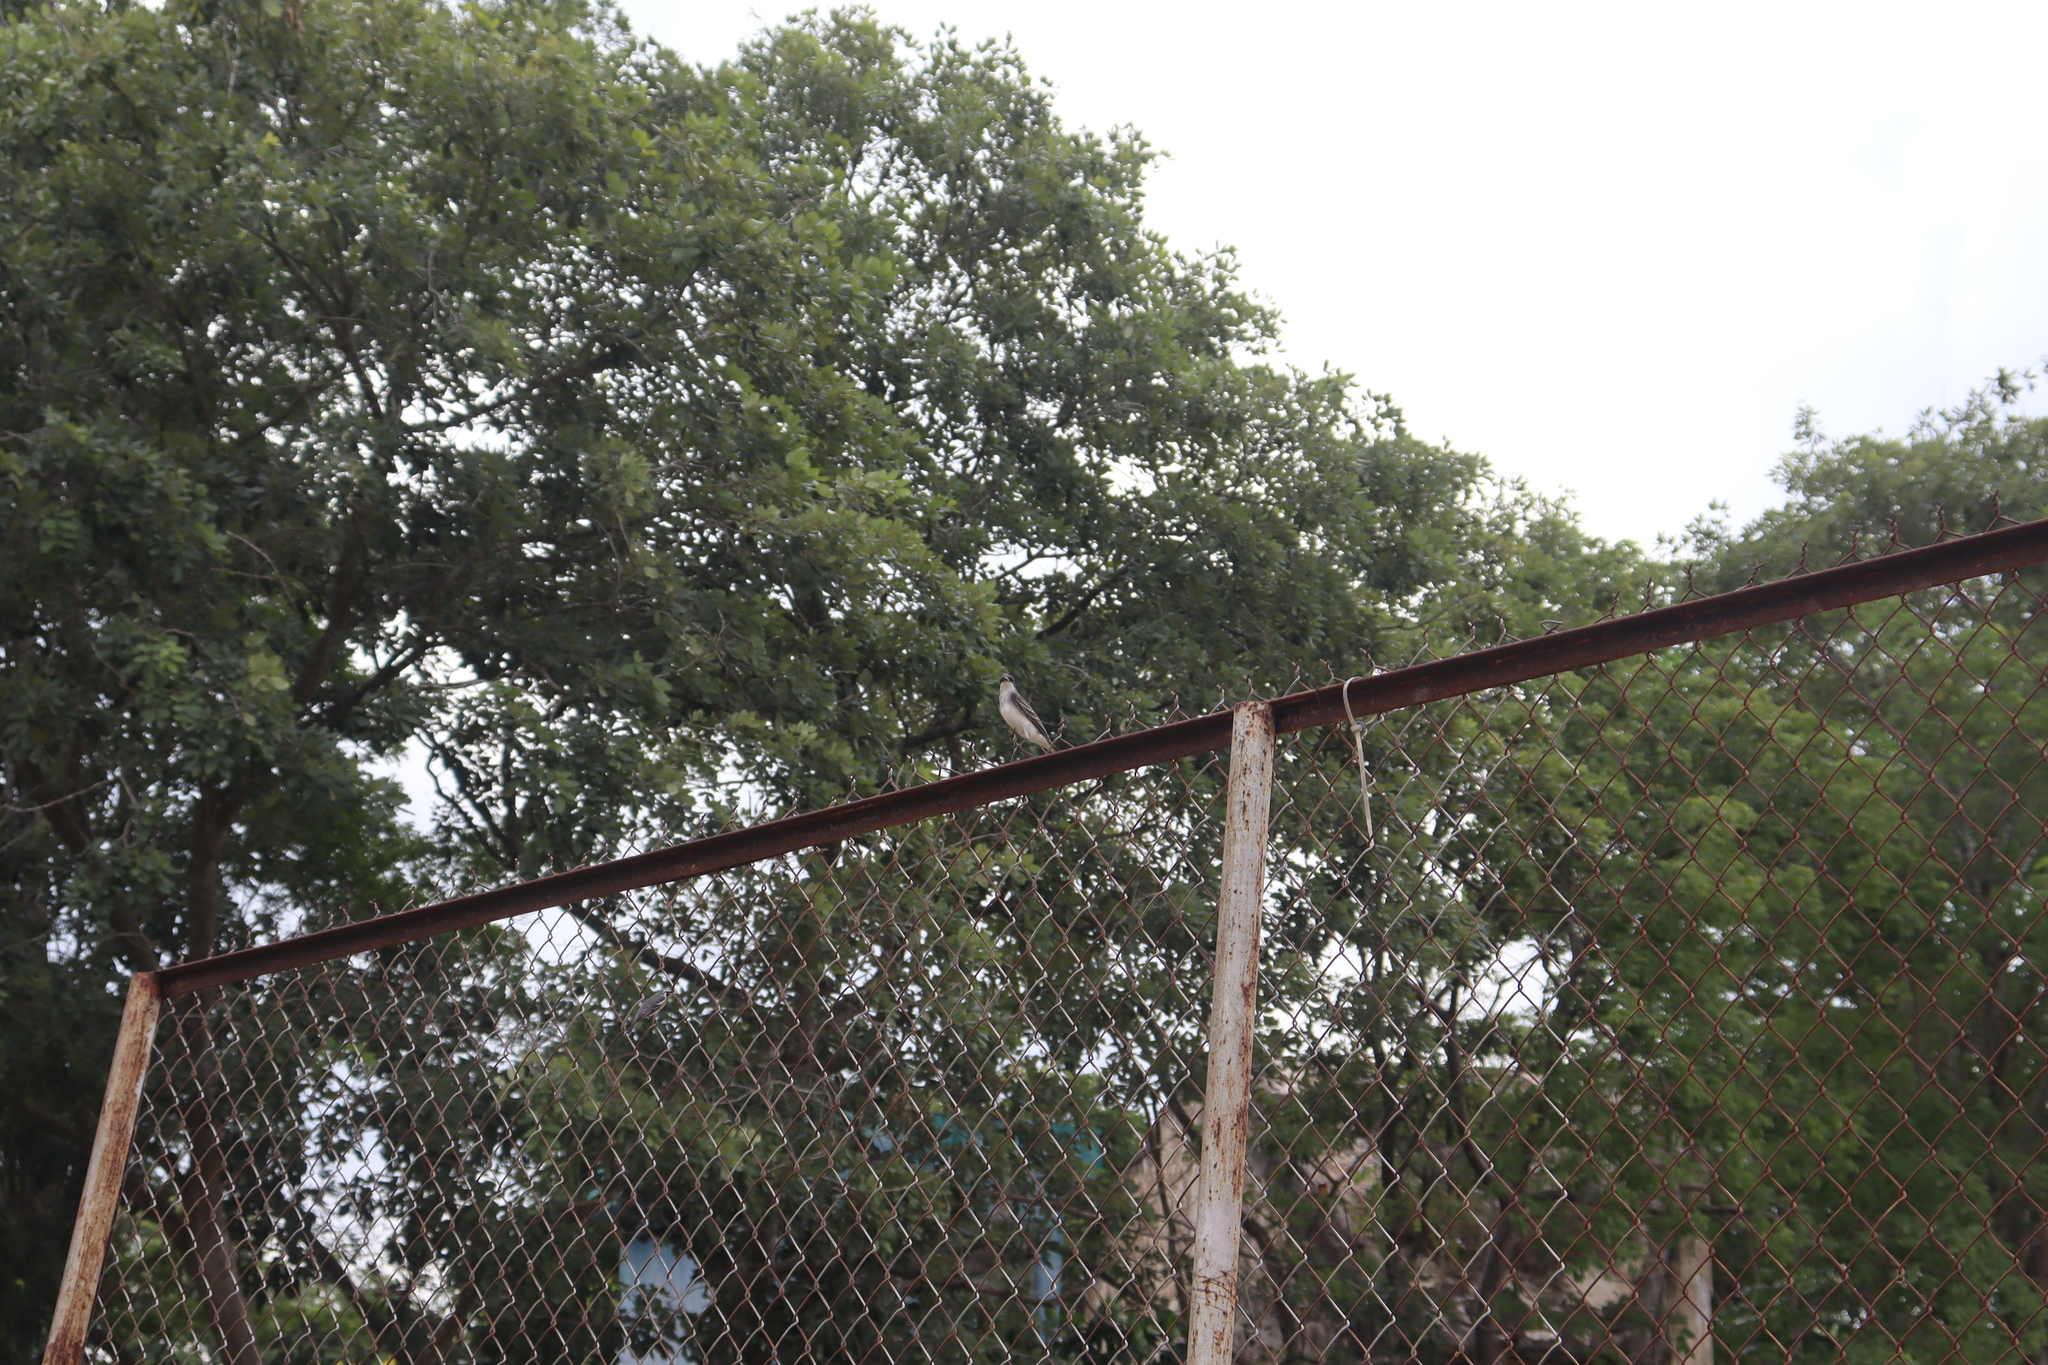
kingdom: Animalia
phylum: Chordata
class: Aves
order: Passeriformes
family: Tyrannidae
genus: Tyrannus
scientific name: Tyrannus tyrannus
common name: Eastern kingbird
